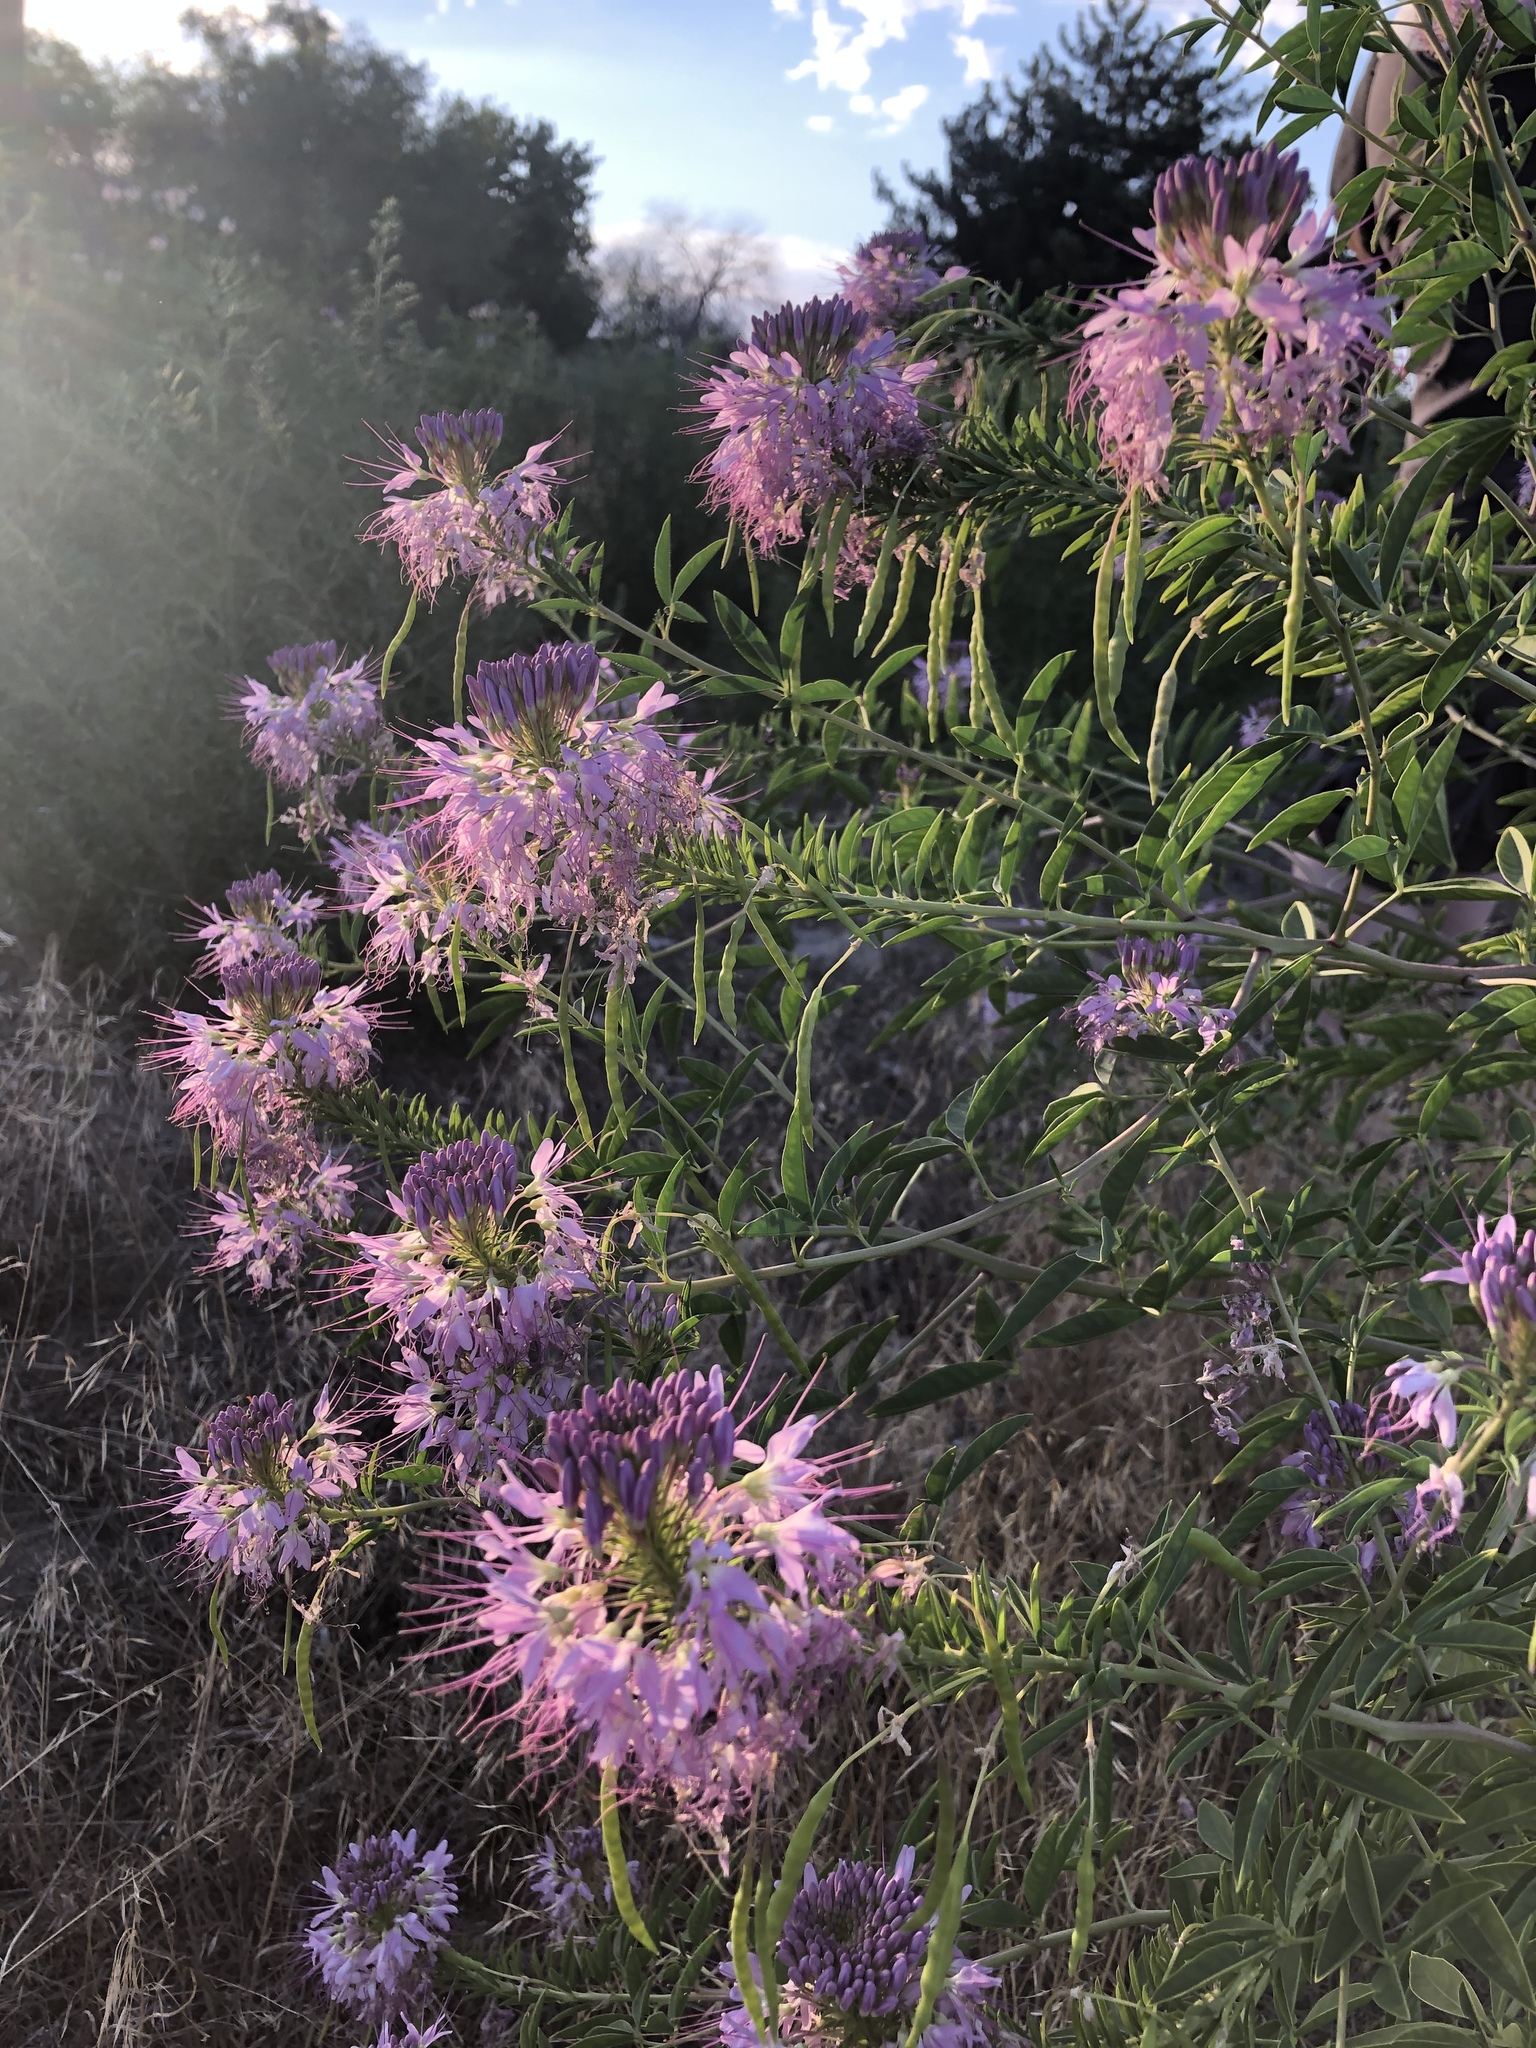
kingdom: Plantae
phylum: Tracheophyta
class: Magnoliopsida
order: Brassicales
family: Cleomaceae
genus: Cleomella
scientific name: Cleomella serrulata
